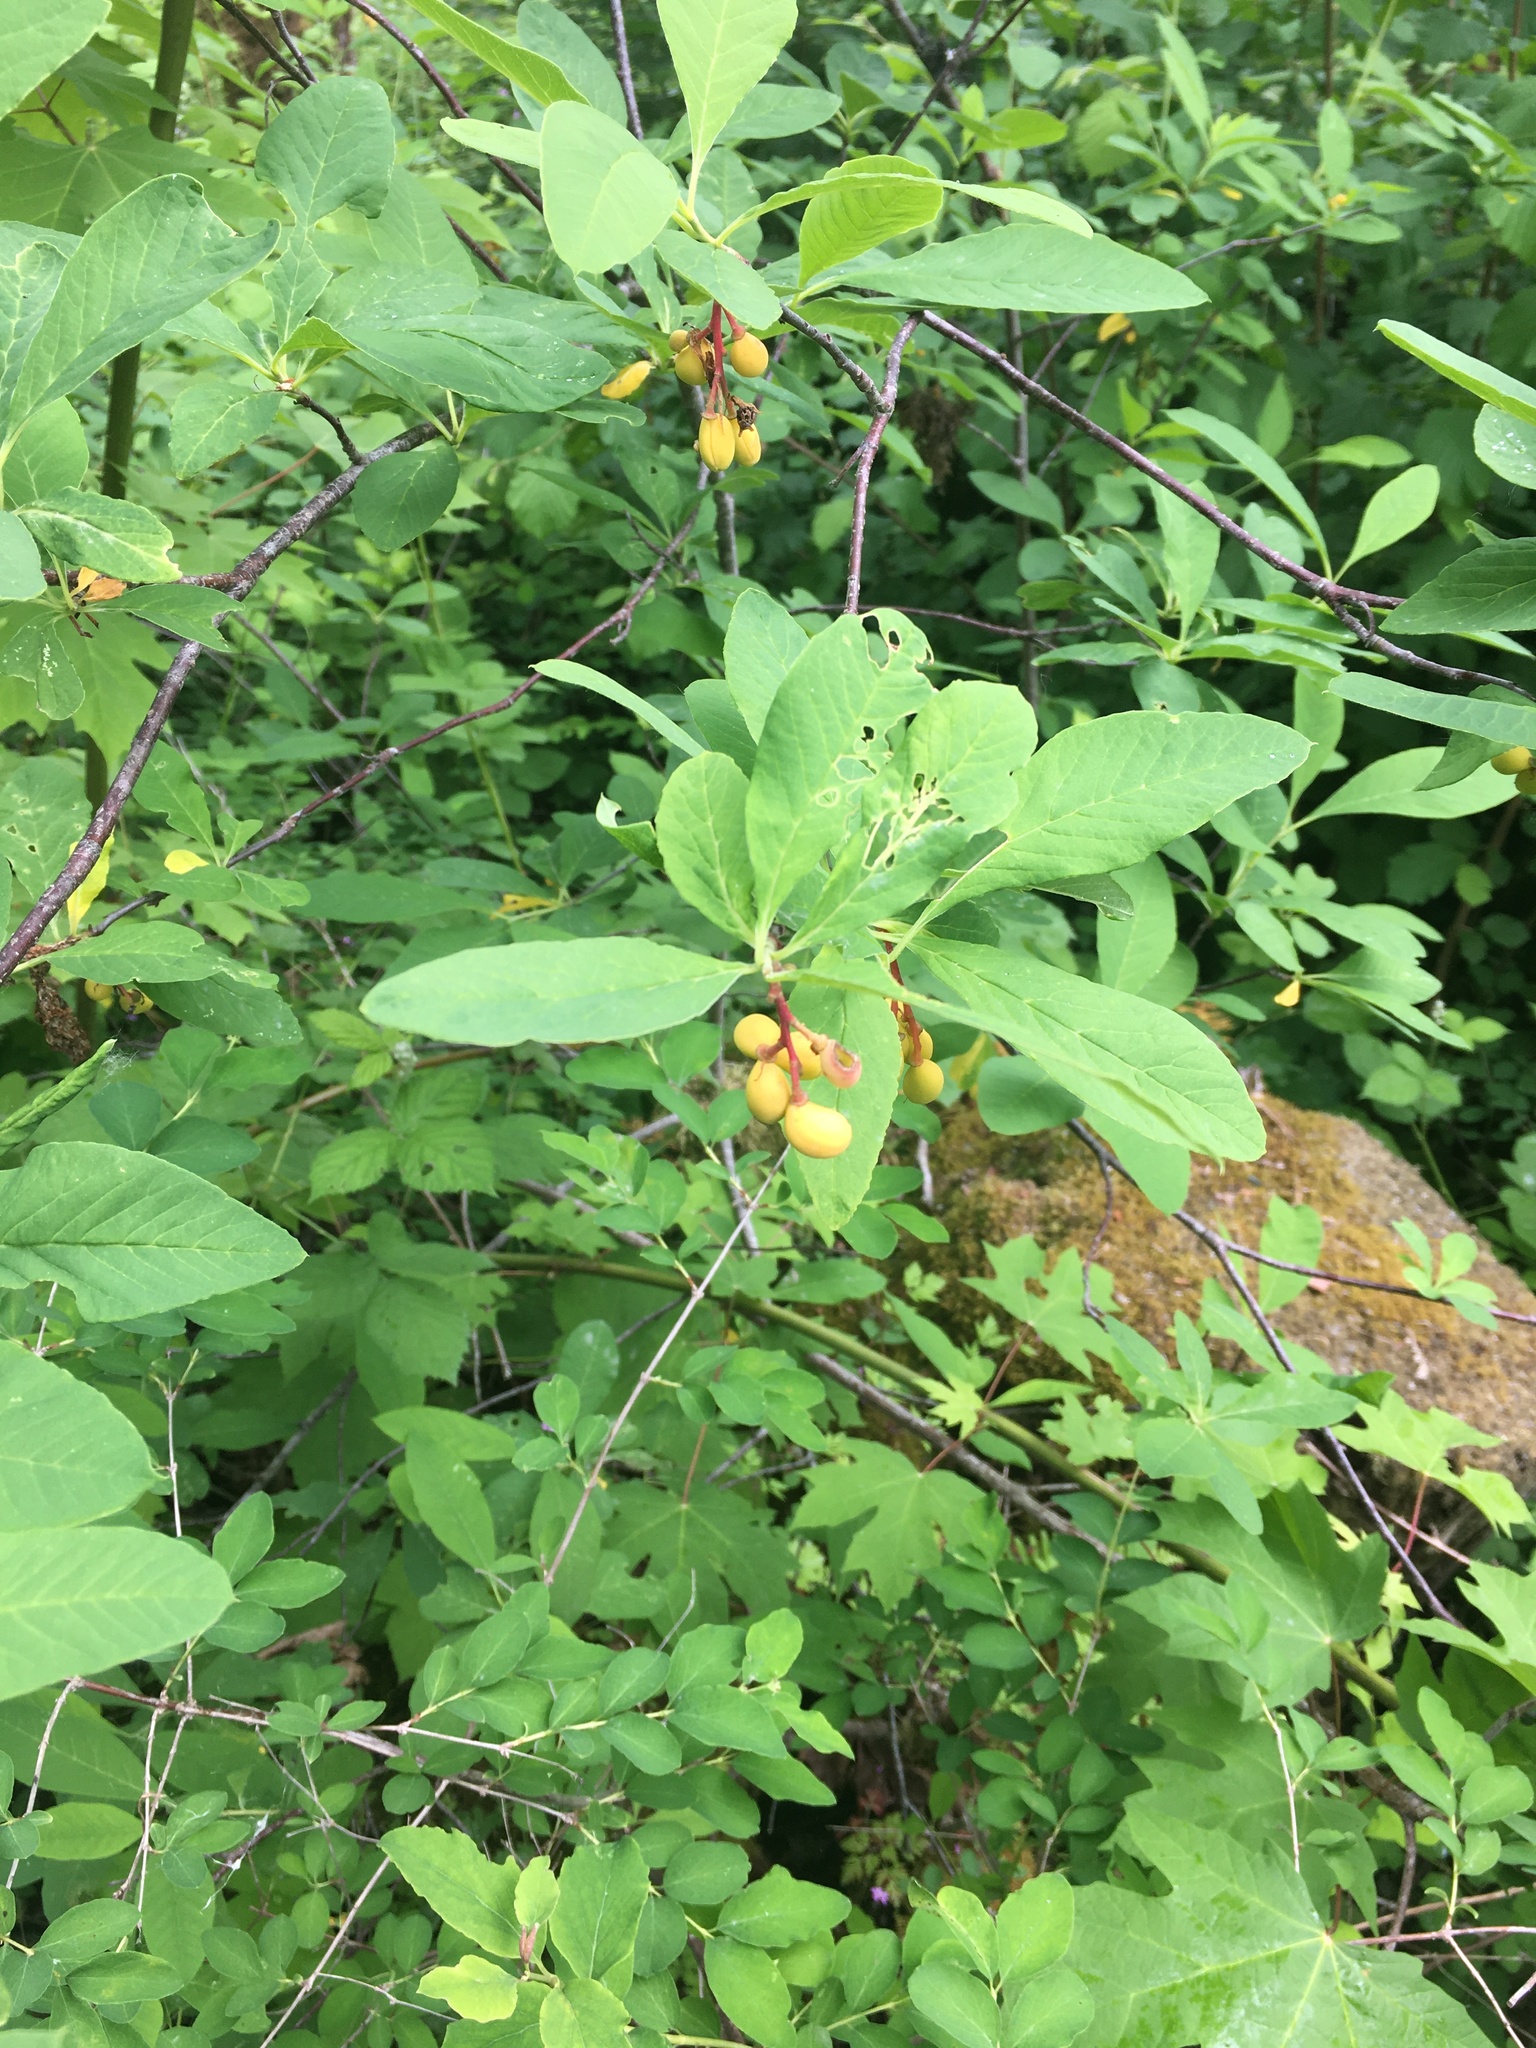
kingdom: Plantae
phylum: Tracheophyta
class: Magnoliopsida
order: Rosales
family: Rosaceae
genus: Oemleria
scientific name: Oemleria cerasiformis
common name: Osoberry
